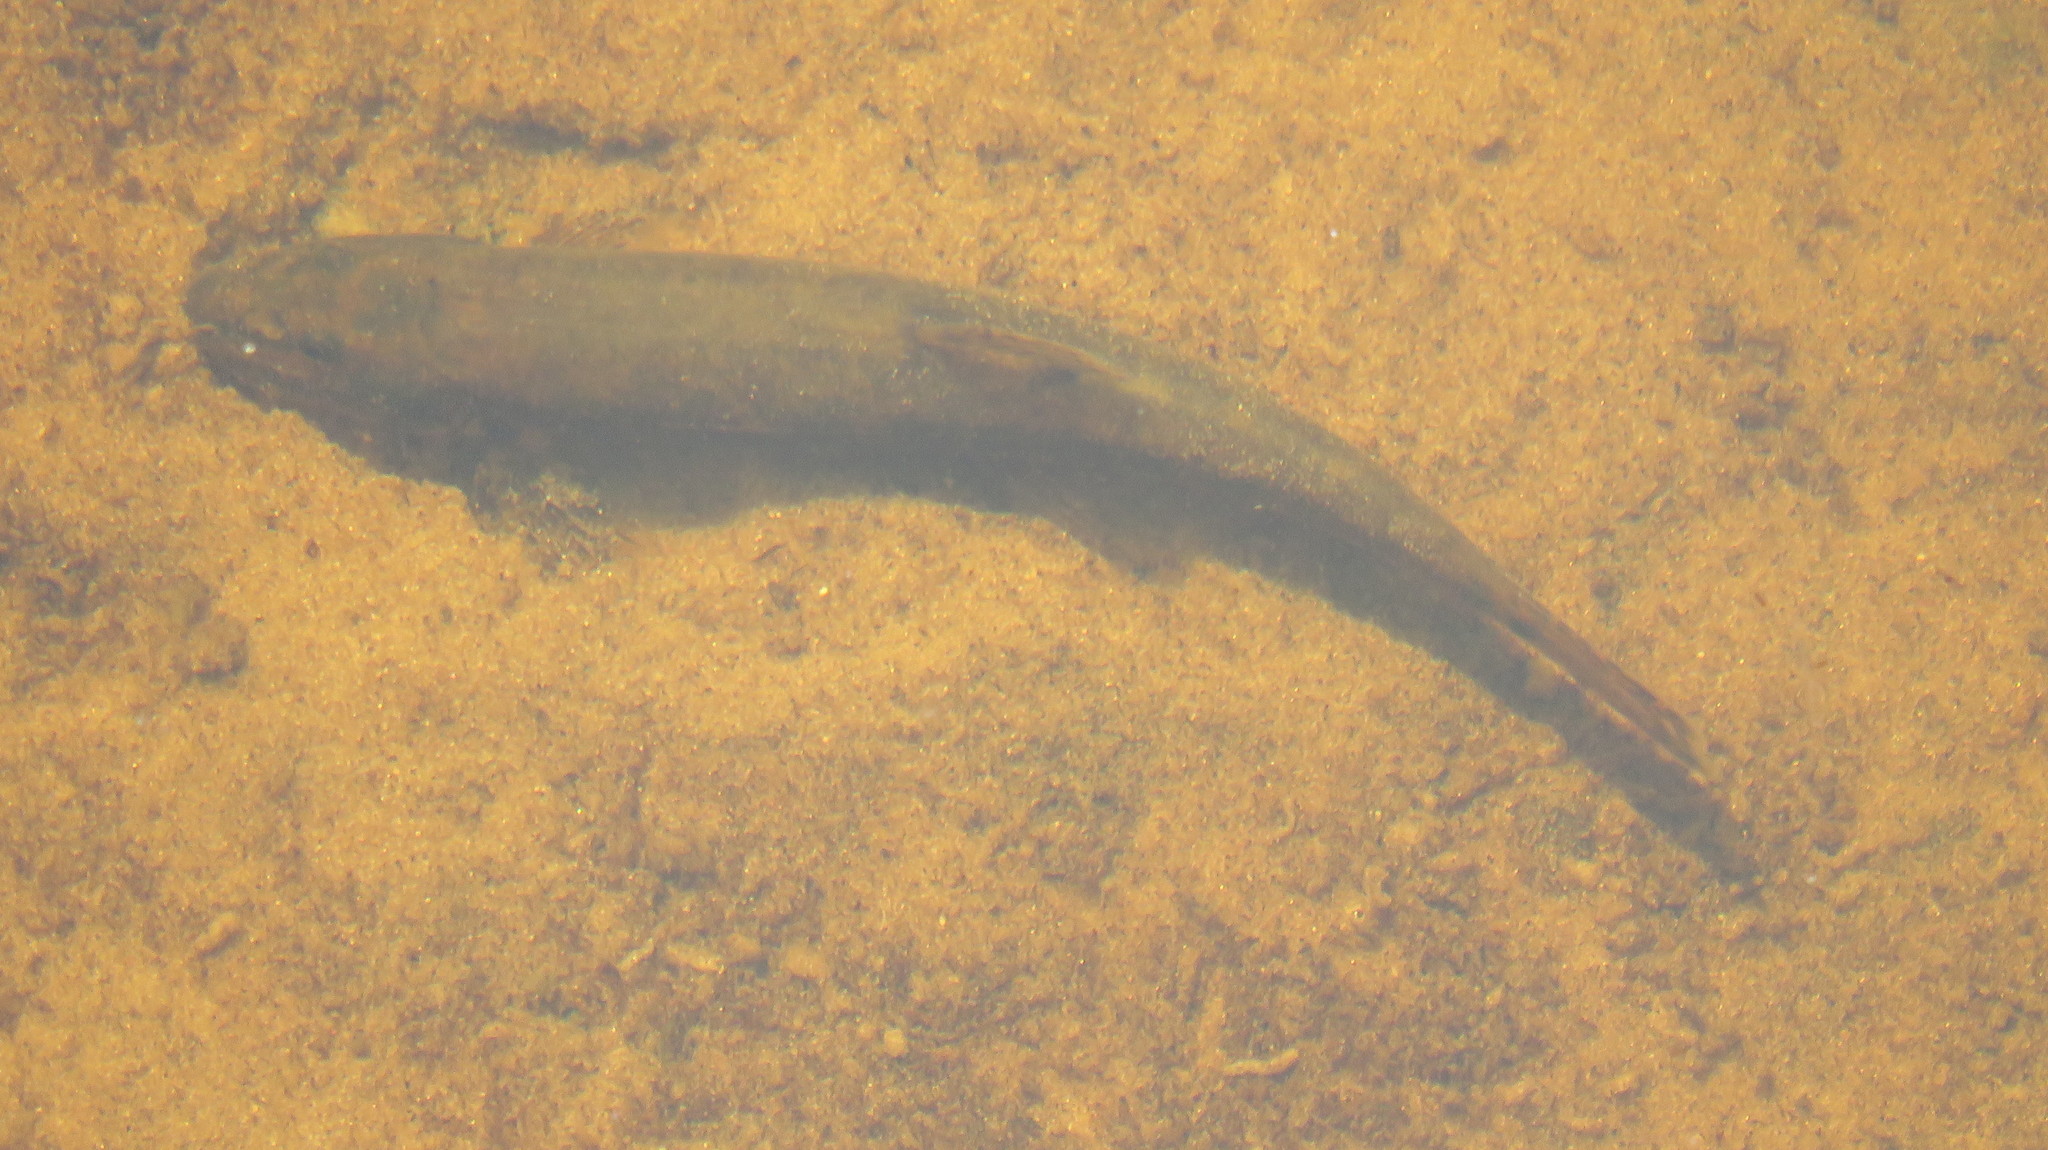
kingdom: Animalia
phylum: Chordata
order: Cypriniformes
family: Nemacheilidae
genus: Barbatula
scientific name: Barbatula barbatula
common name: Stone loach
